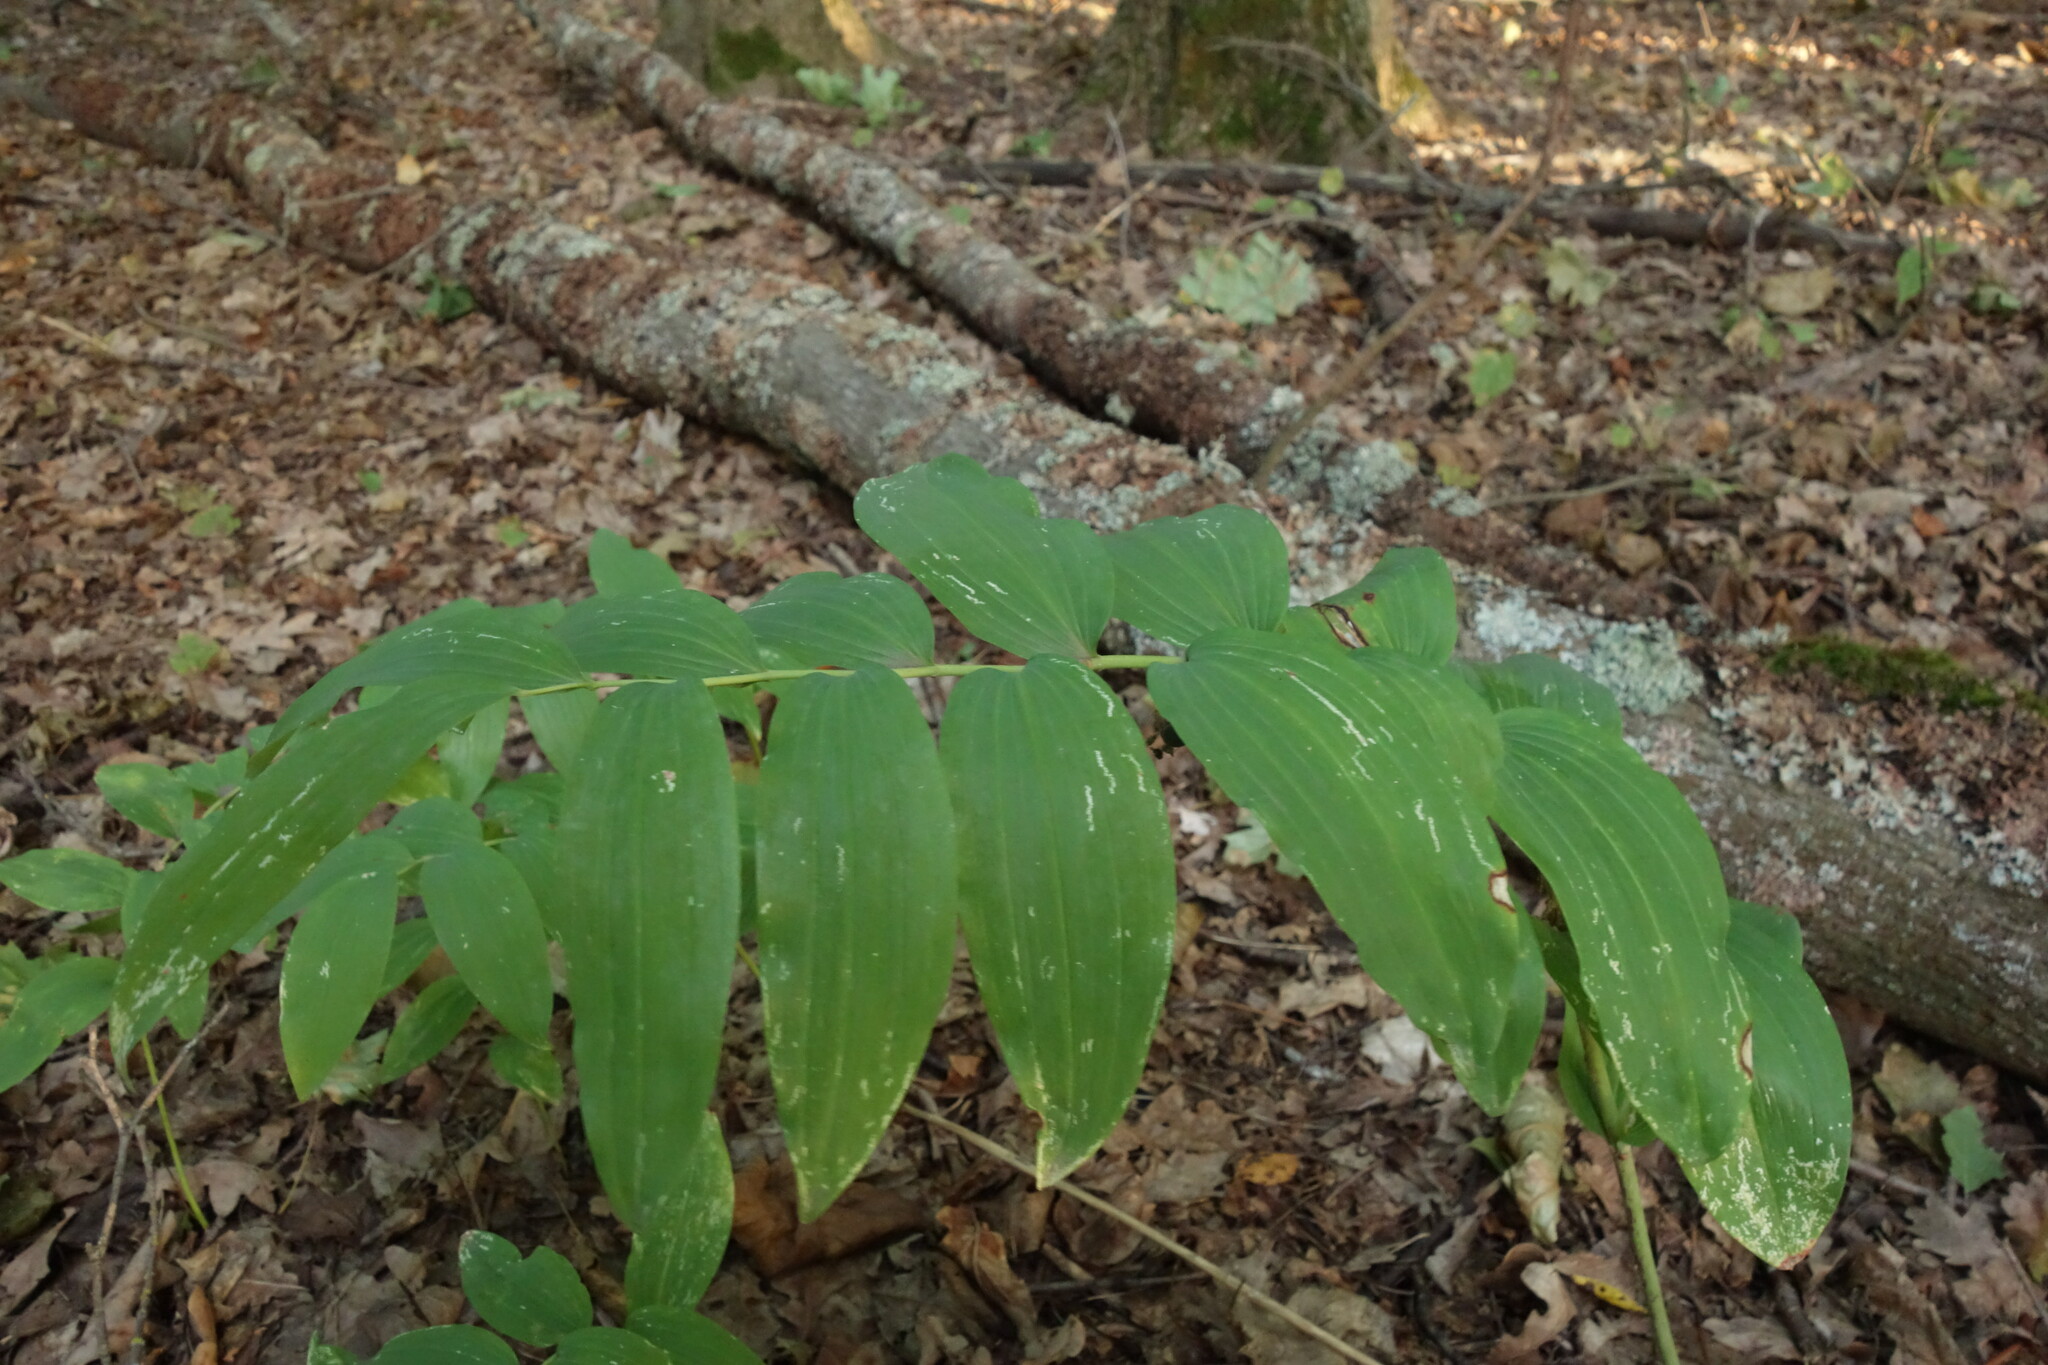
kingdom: Plantae
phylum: Tracheophyta
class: Liliopsida
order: Asparagales
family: Asparagaceae
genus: Polygonatum
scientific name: Polygonatum multiflorum
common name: Solomon's-seal
